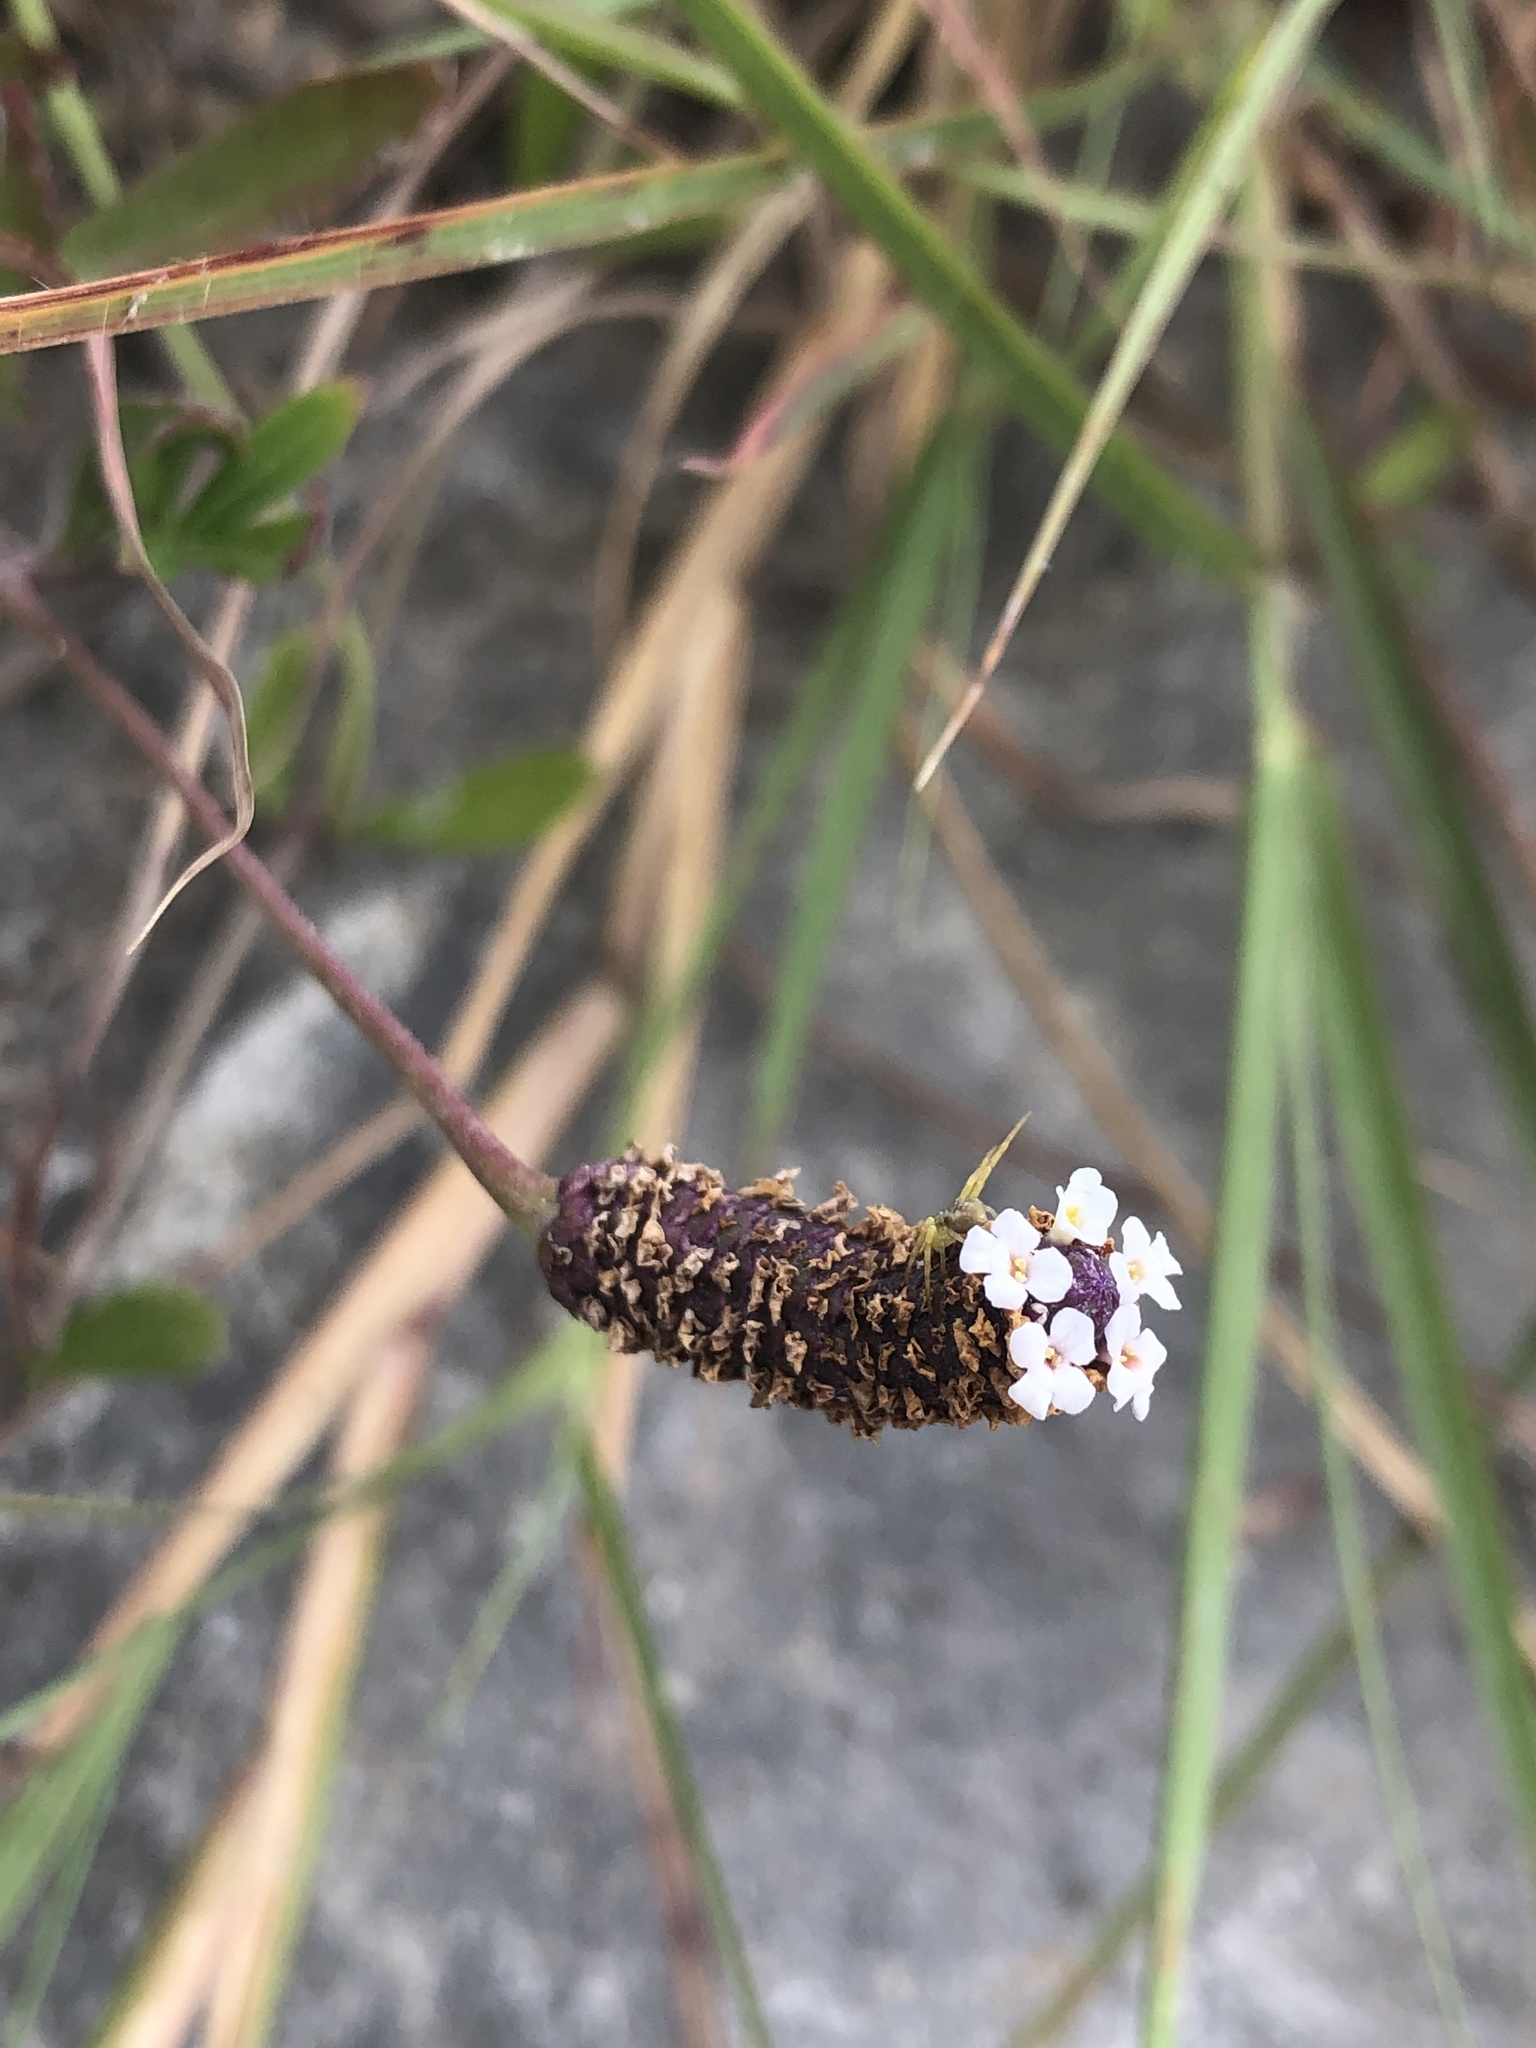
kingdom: Plantae
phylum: Tracheophyta
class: Magnoliopsida
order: Lamiales
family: Verbenaceae
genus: Phyla
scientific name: Phyla nodiflora
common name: Frogfruit
